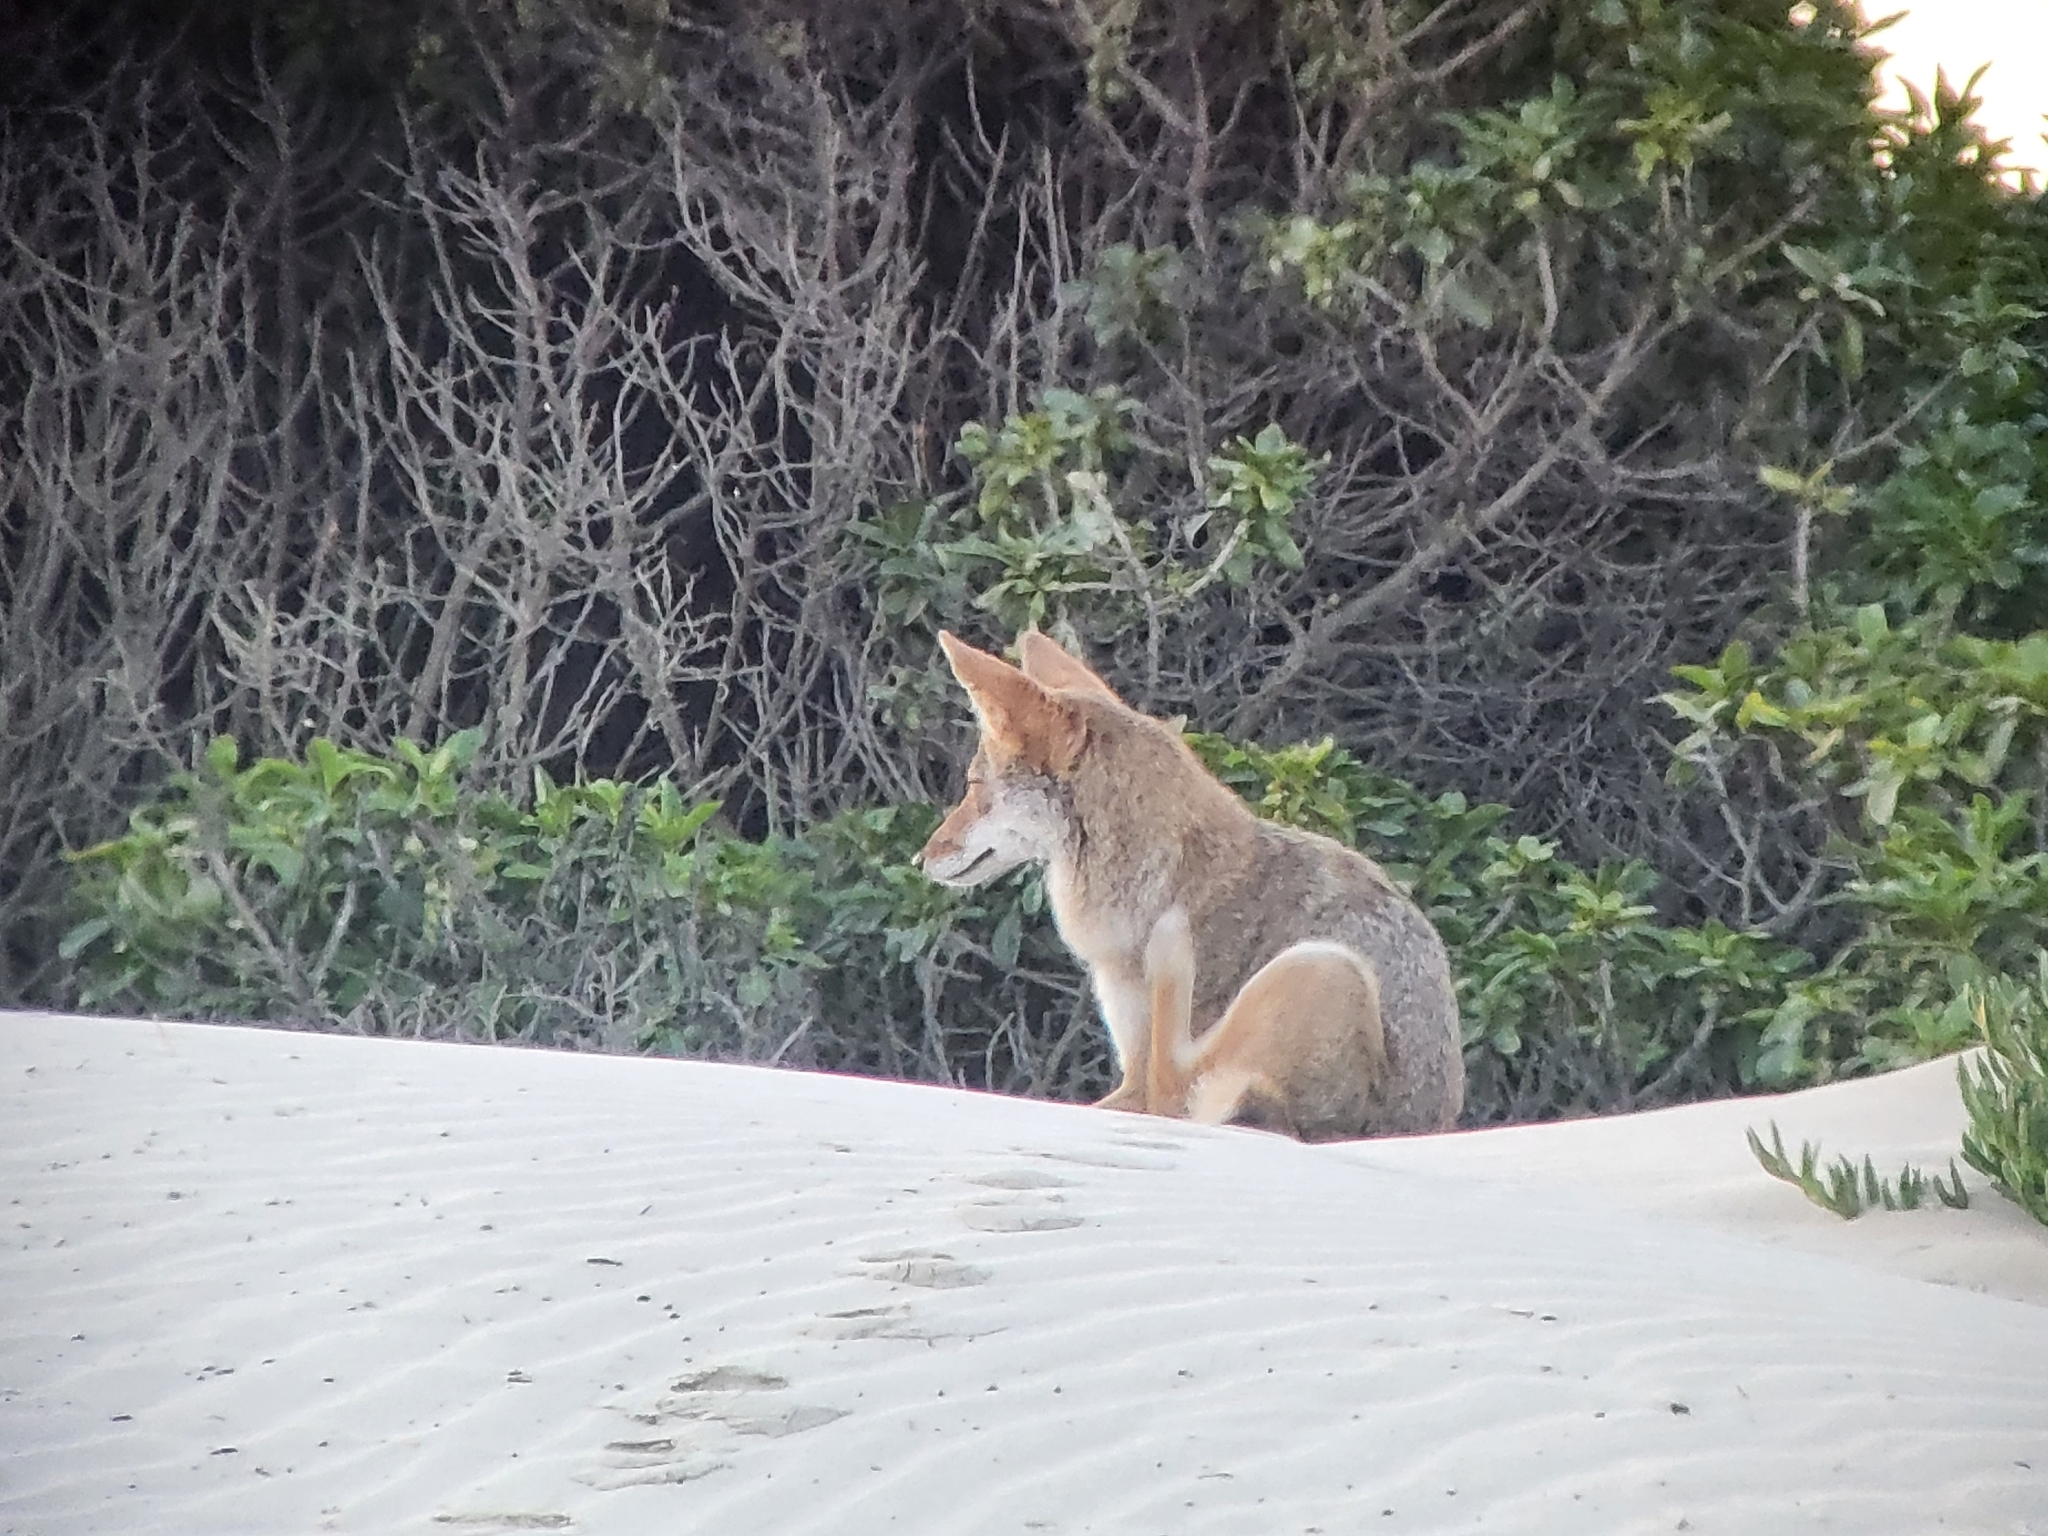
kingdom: Animalia
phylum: Chordata
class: Mammalia
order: Carnivora
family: Canidae
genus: Canis
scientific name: Canis latrans
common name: Coyote
